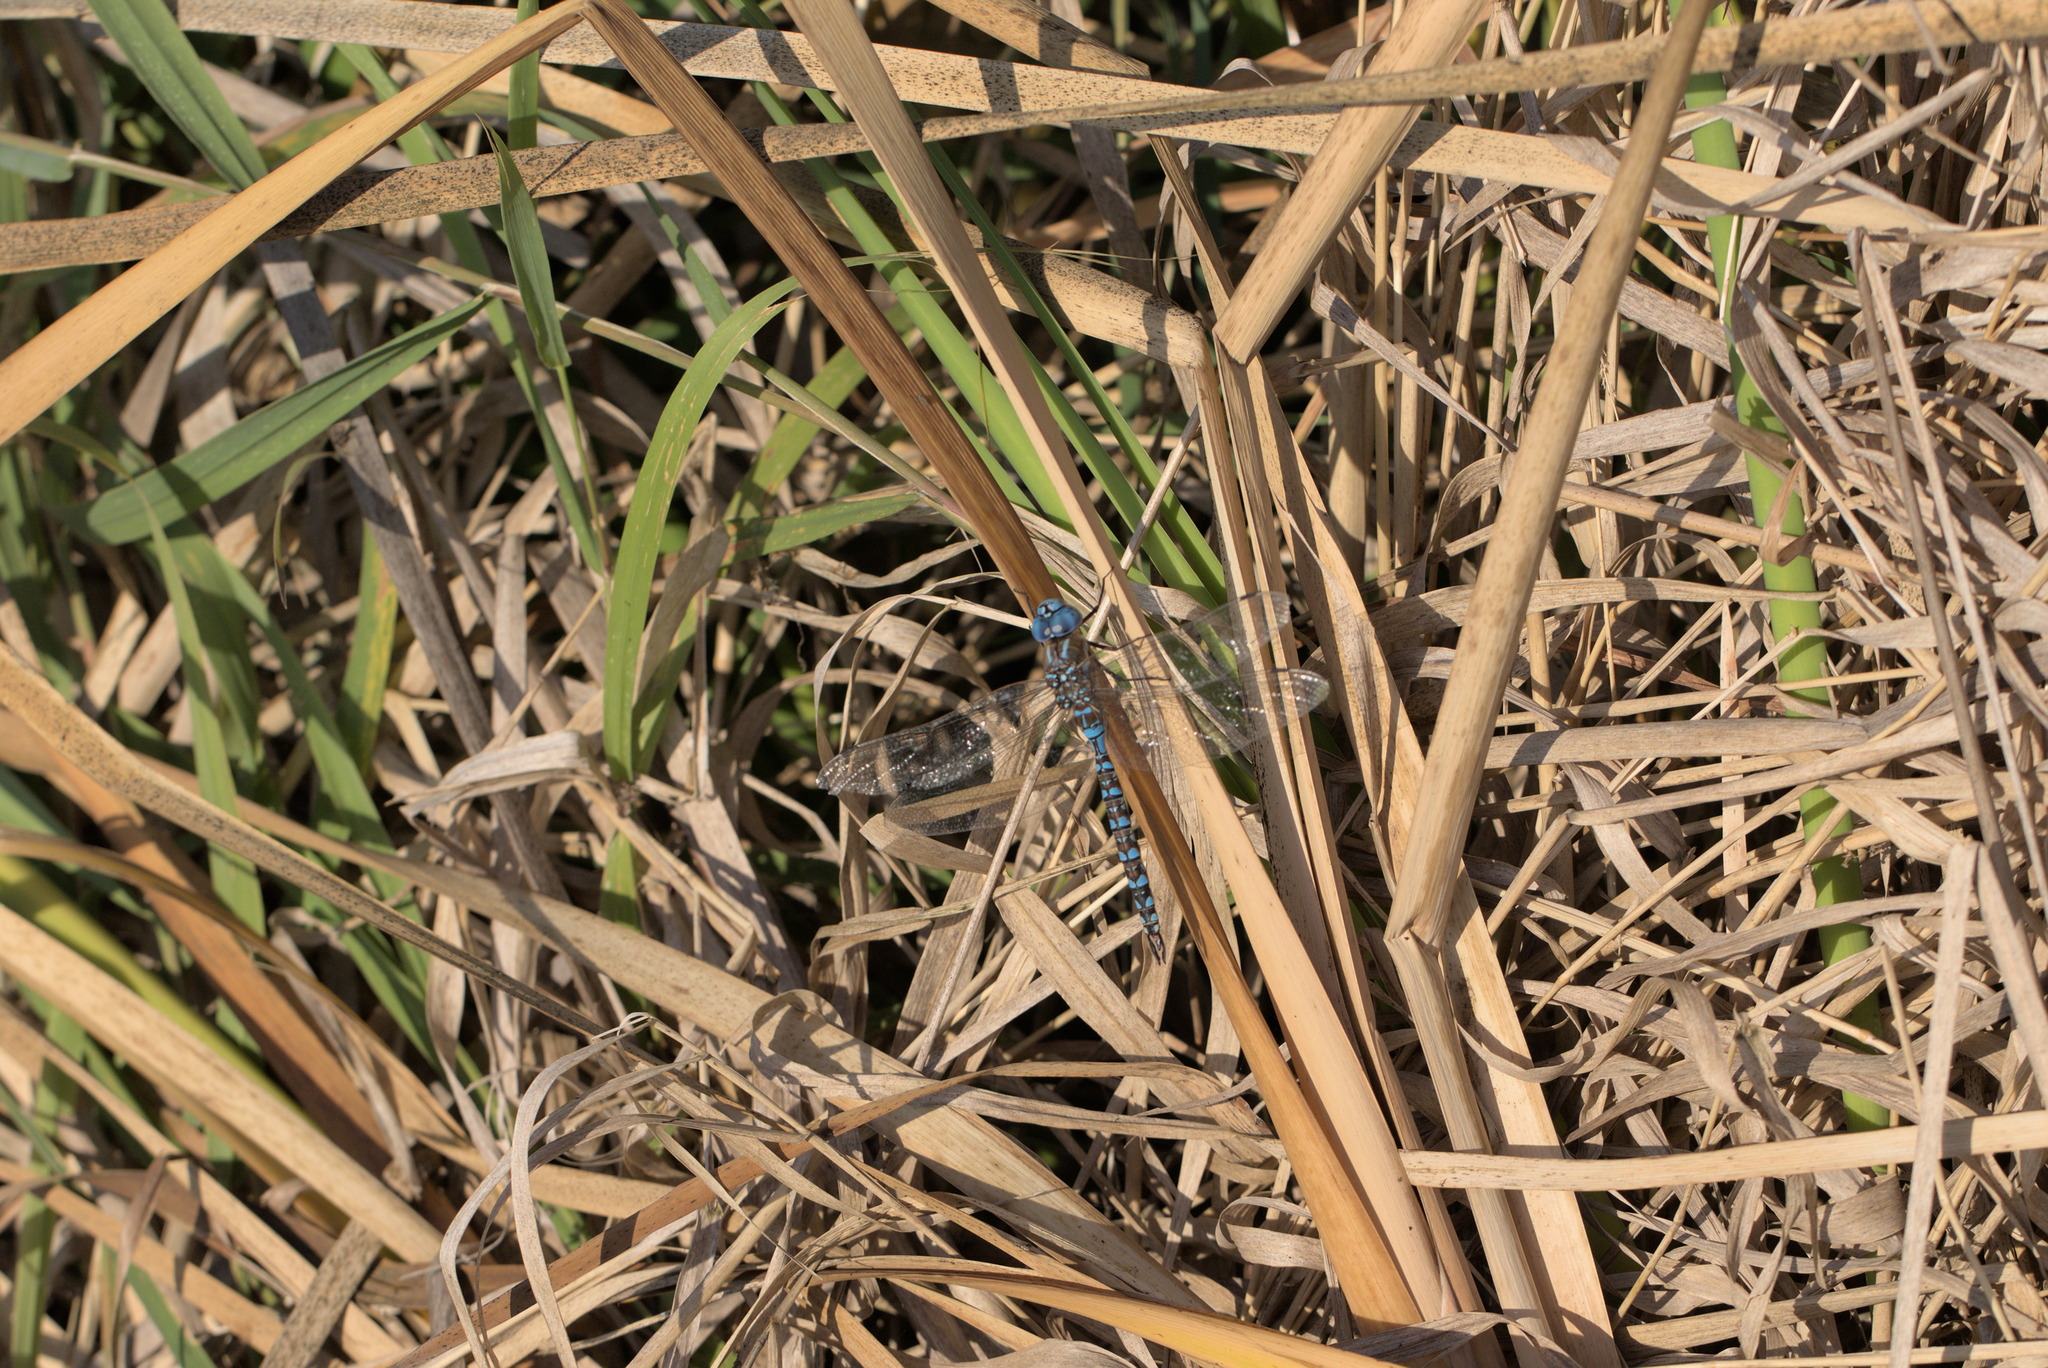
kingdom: Animalia
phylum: Arthropoda
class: Insecta
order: Odonata
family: Aeshnidae
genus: Rhionaeschna
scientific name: Rhionaeschna multicolor
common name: Blue-eyed darner
